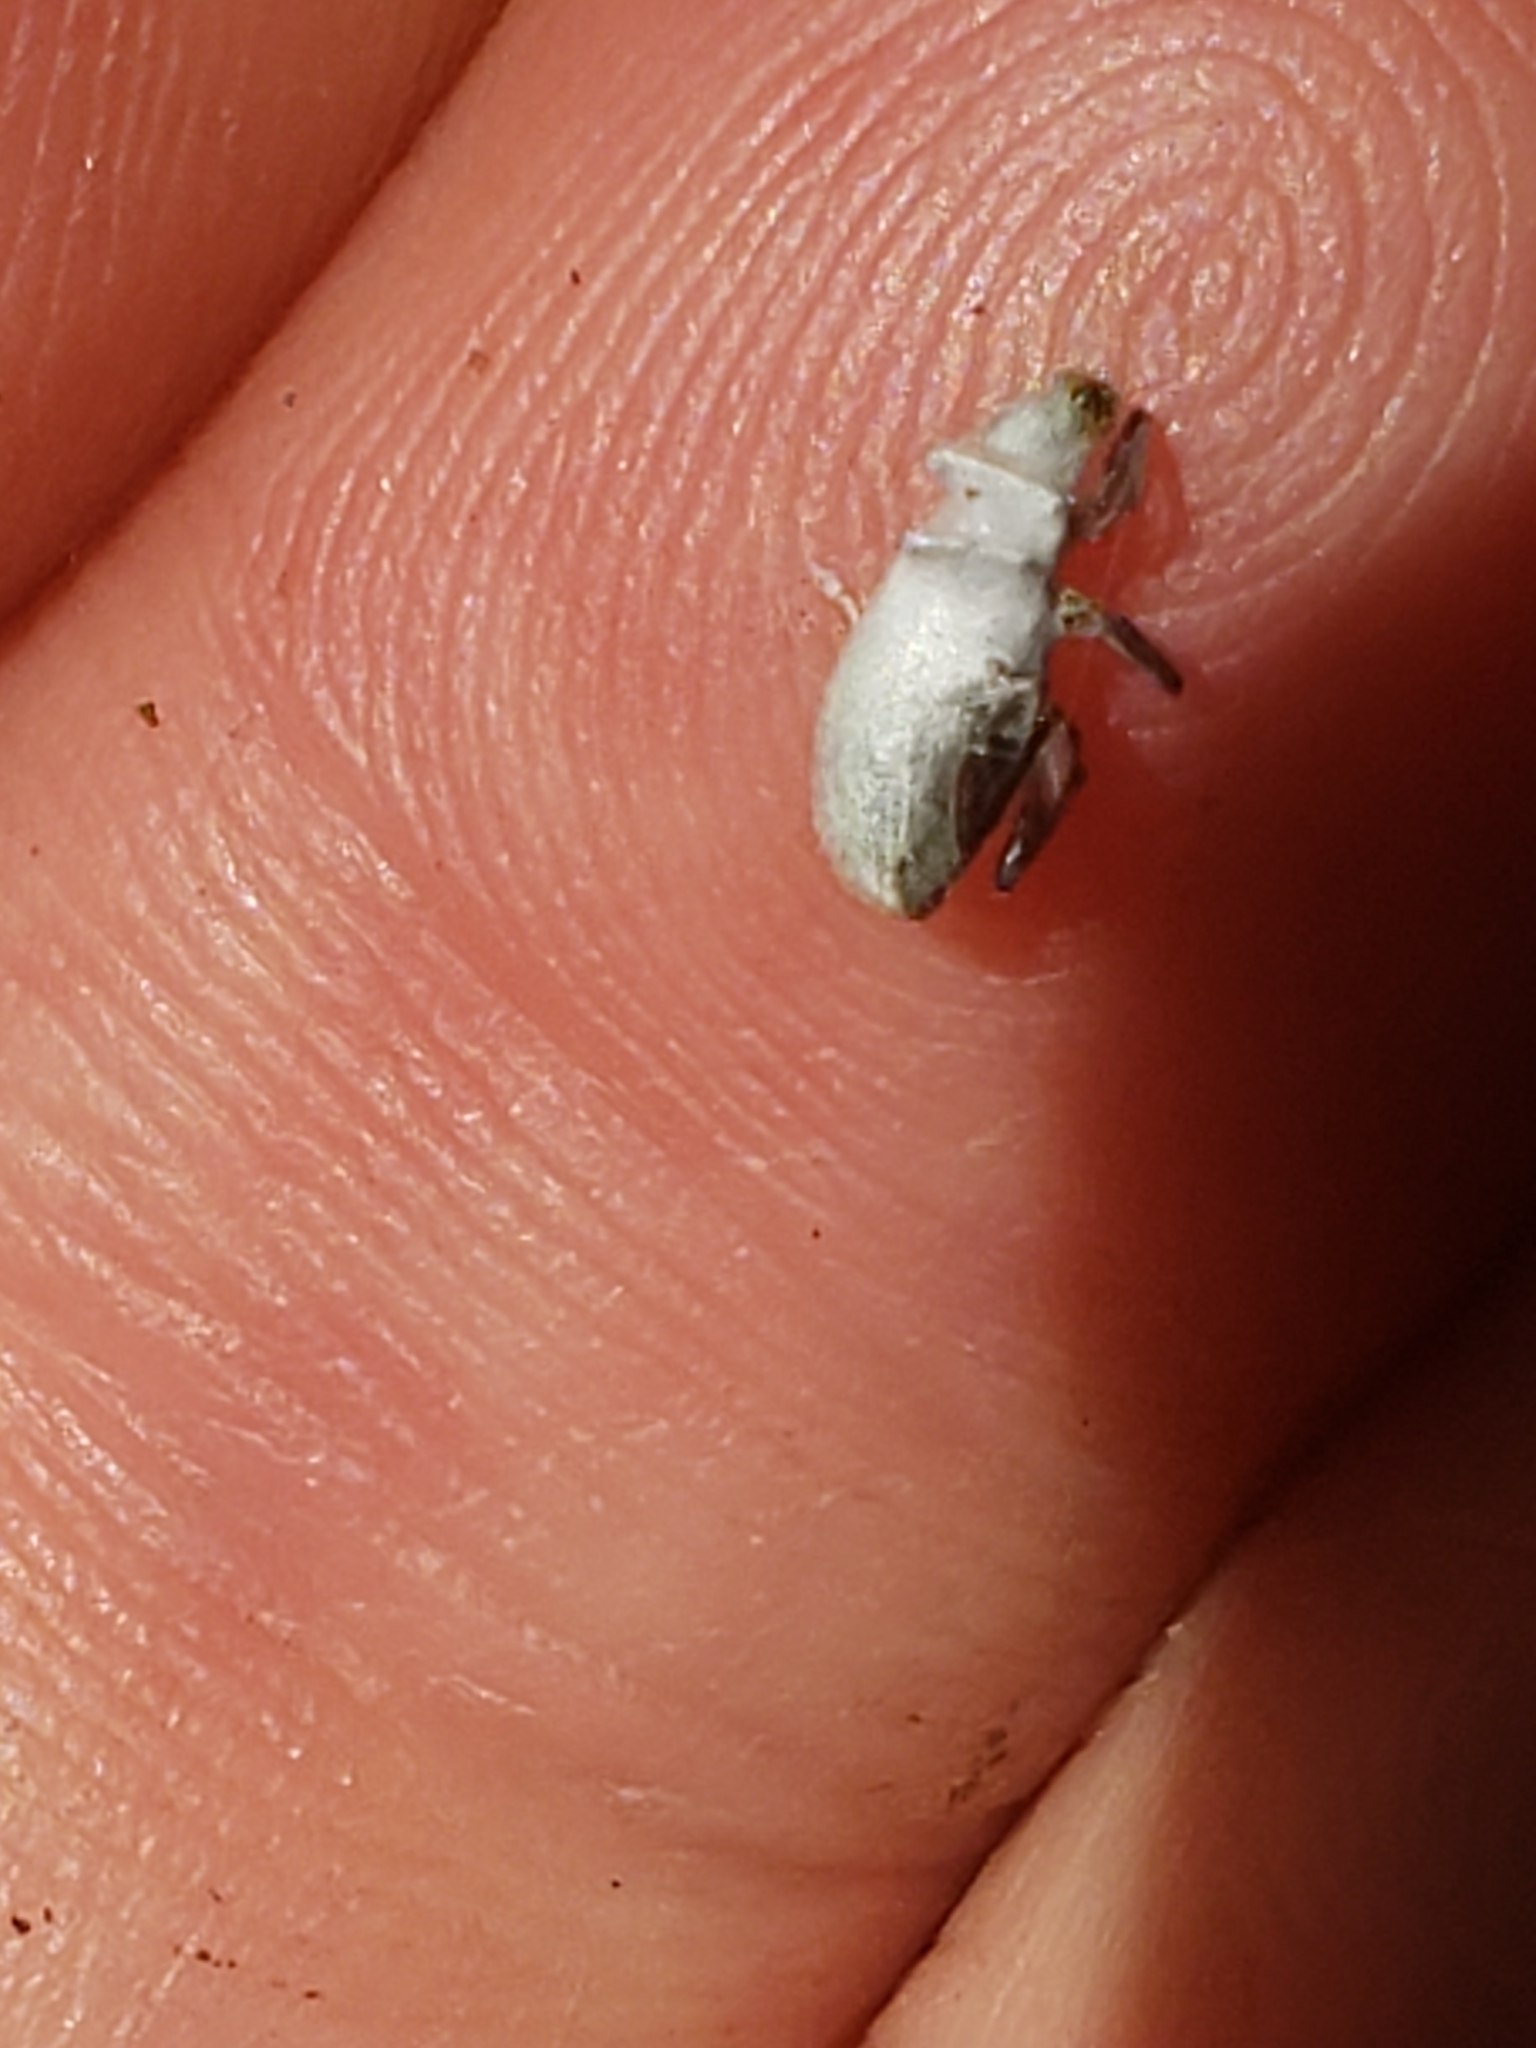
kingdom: Animalia
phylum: Arthropoda
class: Insecta
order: Coleoptera
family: Curculionidae
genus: Cyrtepistomus
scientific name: Cyrtepistomus castaneus
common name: Weevil
